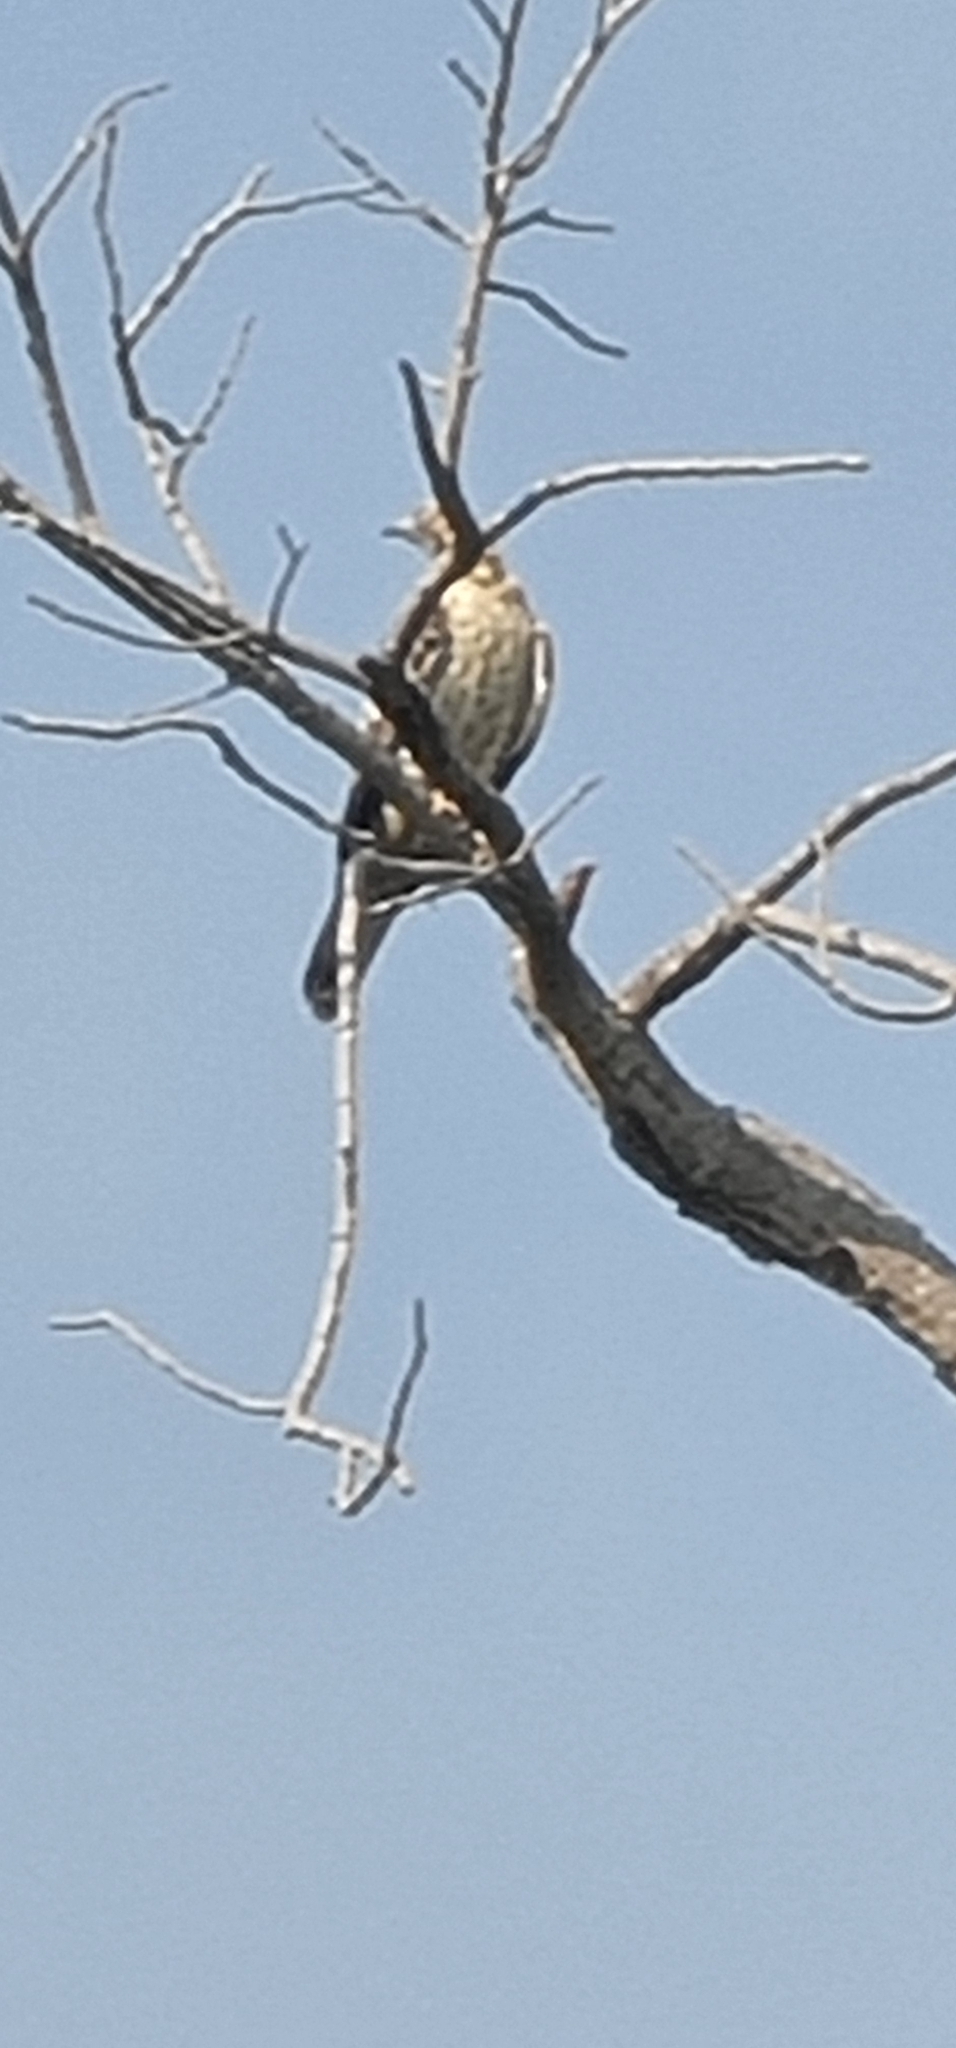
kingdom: Animalia
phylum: Chordata
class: Aves
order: Accipitriformes
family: Accipitridae
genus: Pernis
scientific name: Pernis ptilorhynchus
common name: Crested honey buzzard
